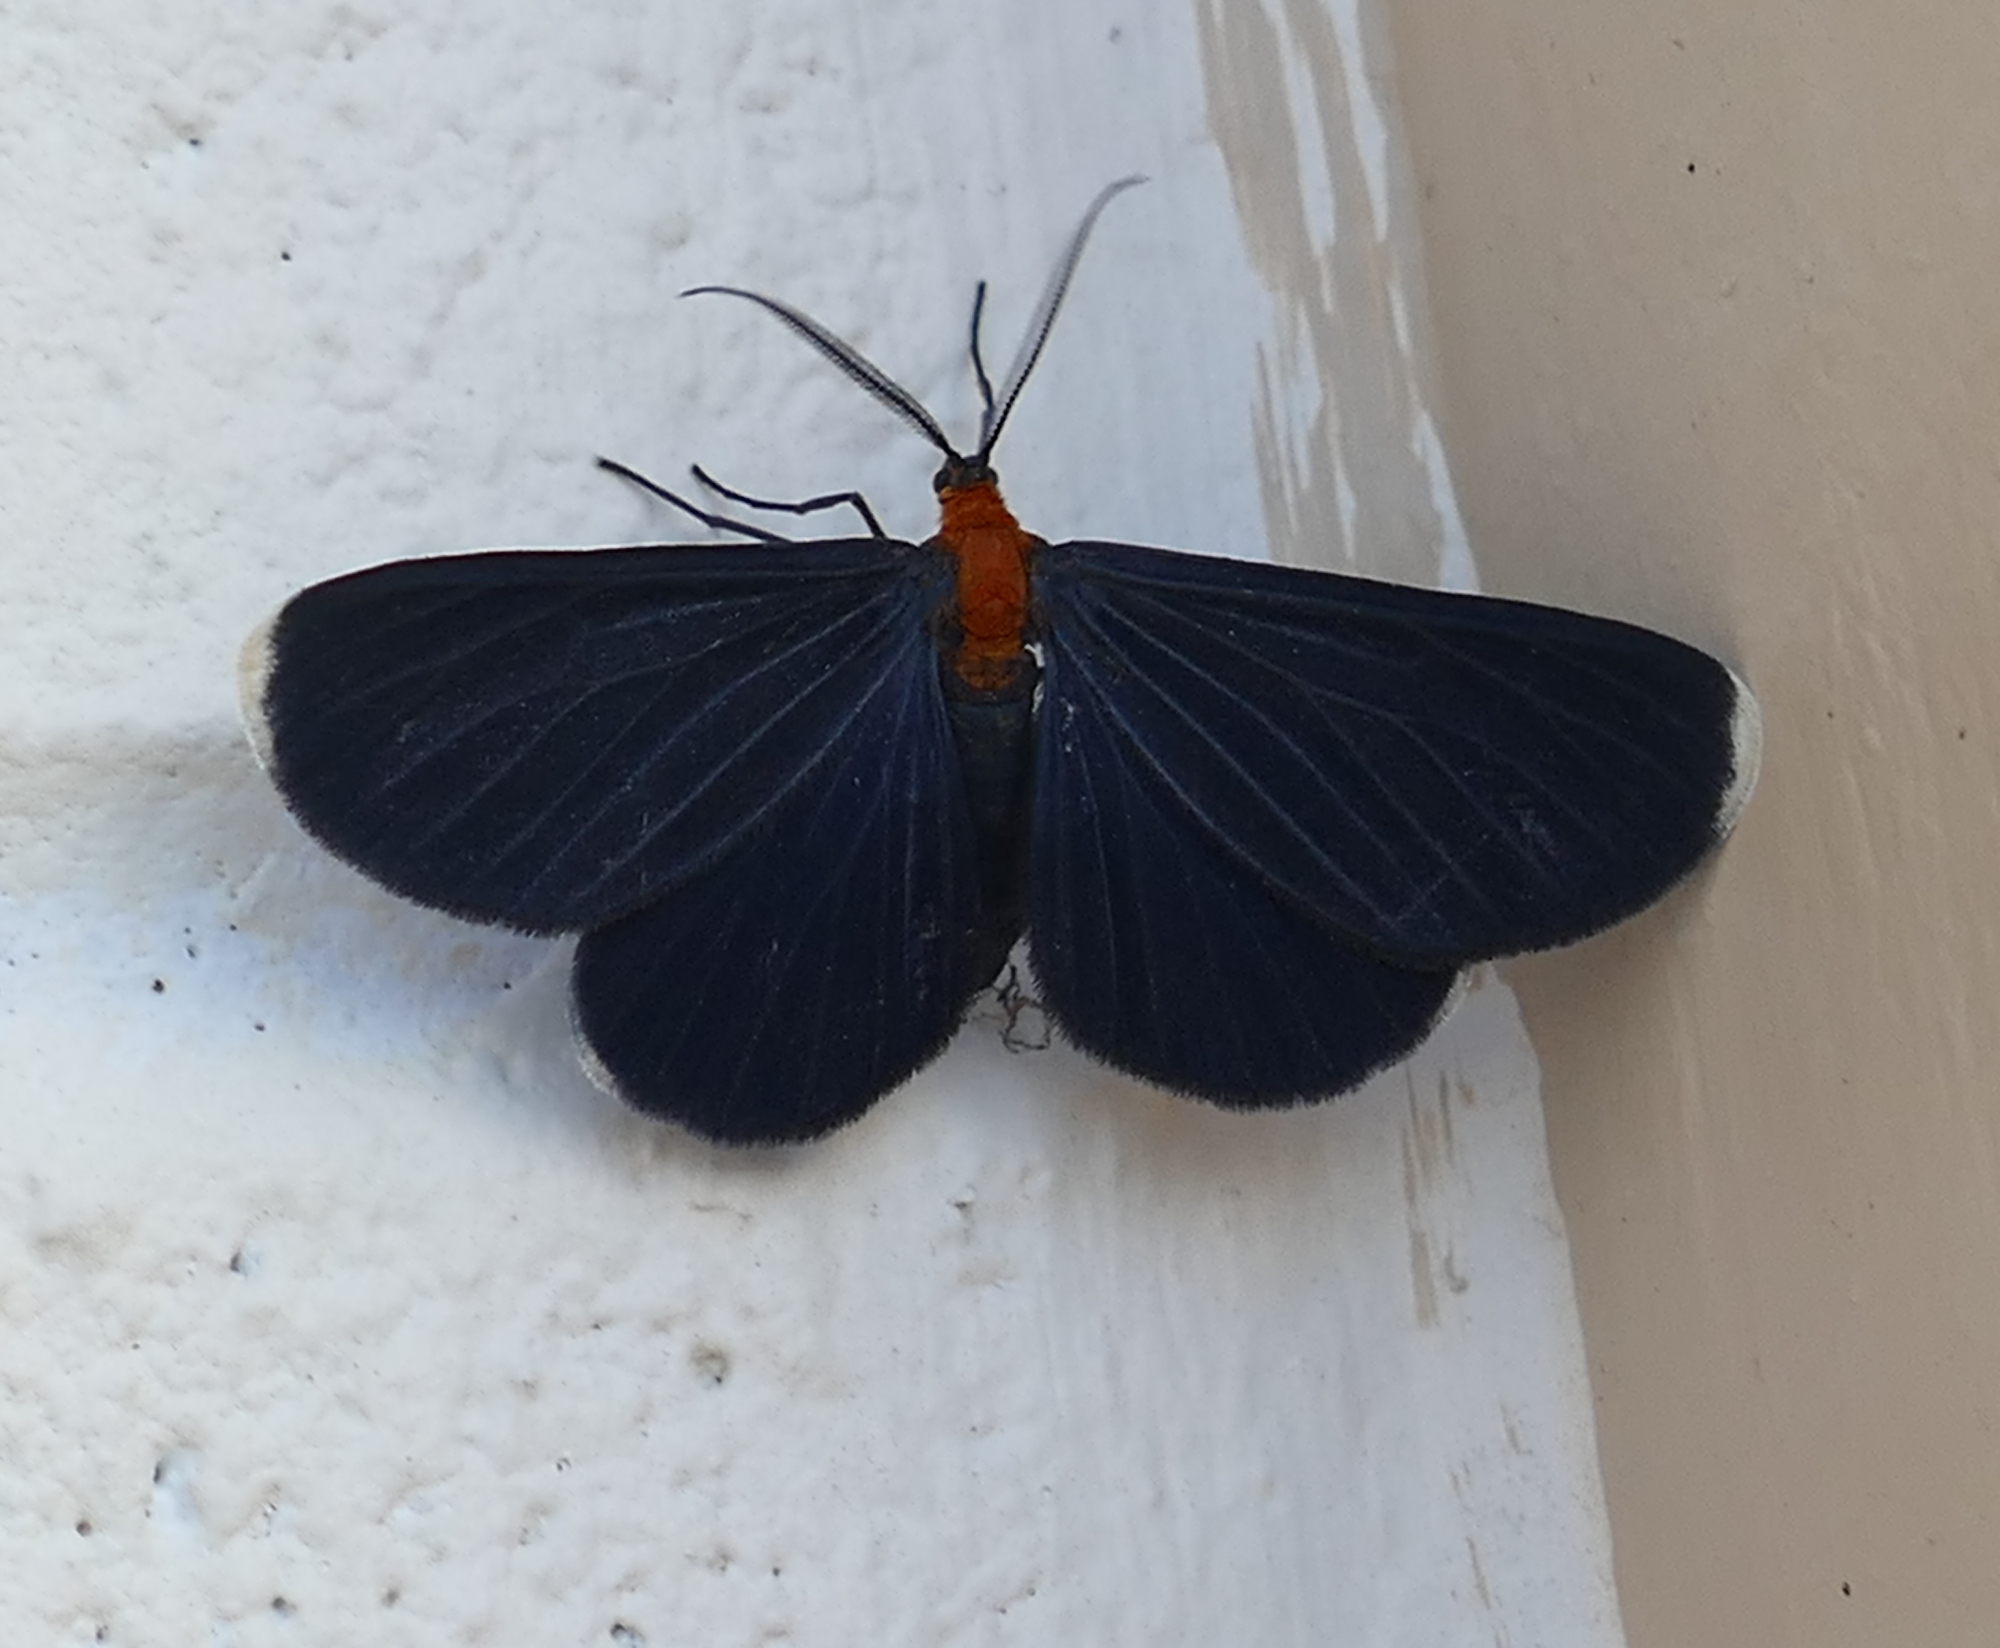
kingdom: Animalia
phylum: Arthropoda
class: Insecta
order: Lepidoptera
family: Geometridae
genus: Melanchroia
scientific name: Melanchroia chephise
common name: White-tipped black
